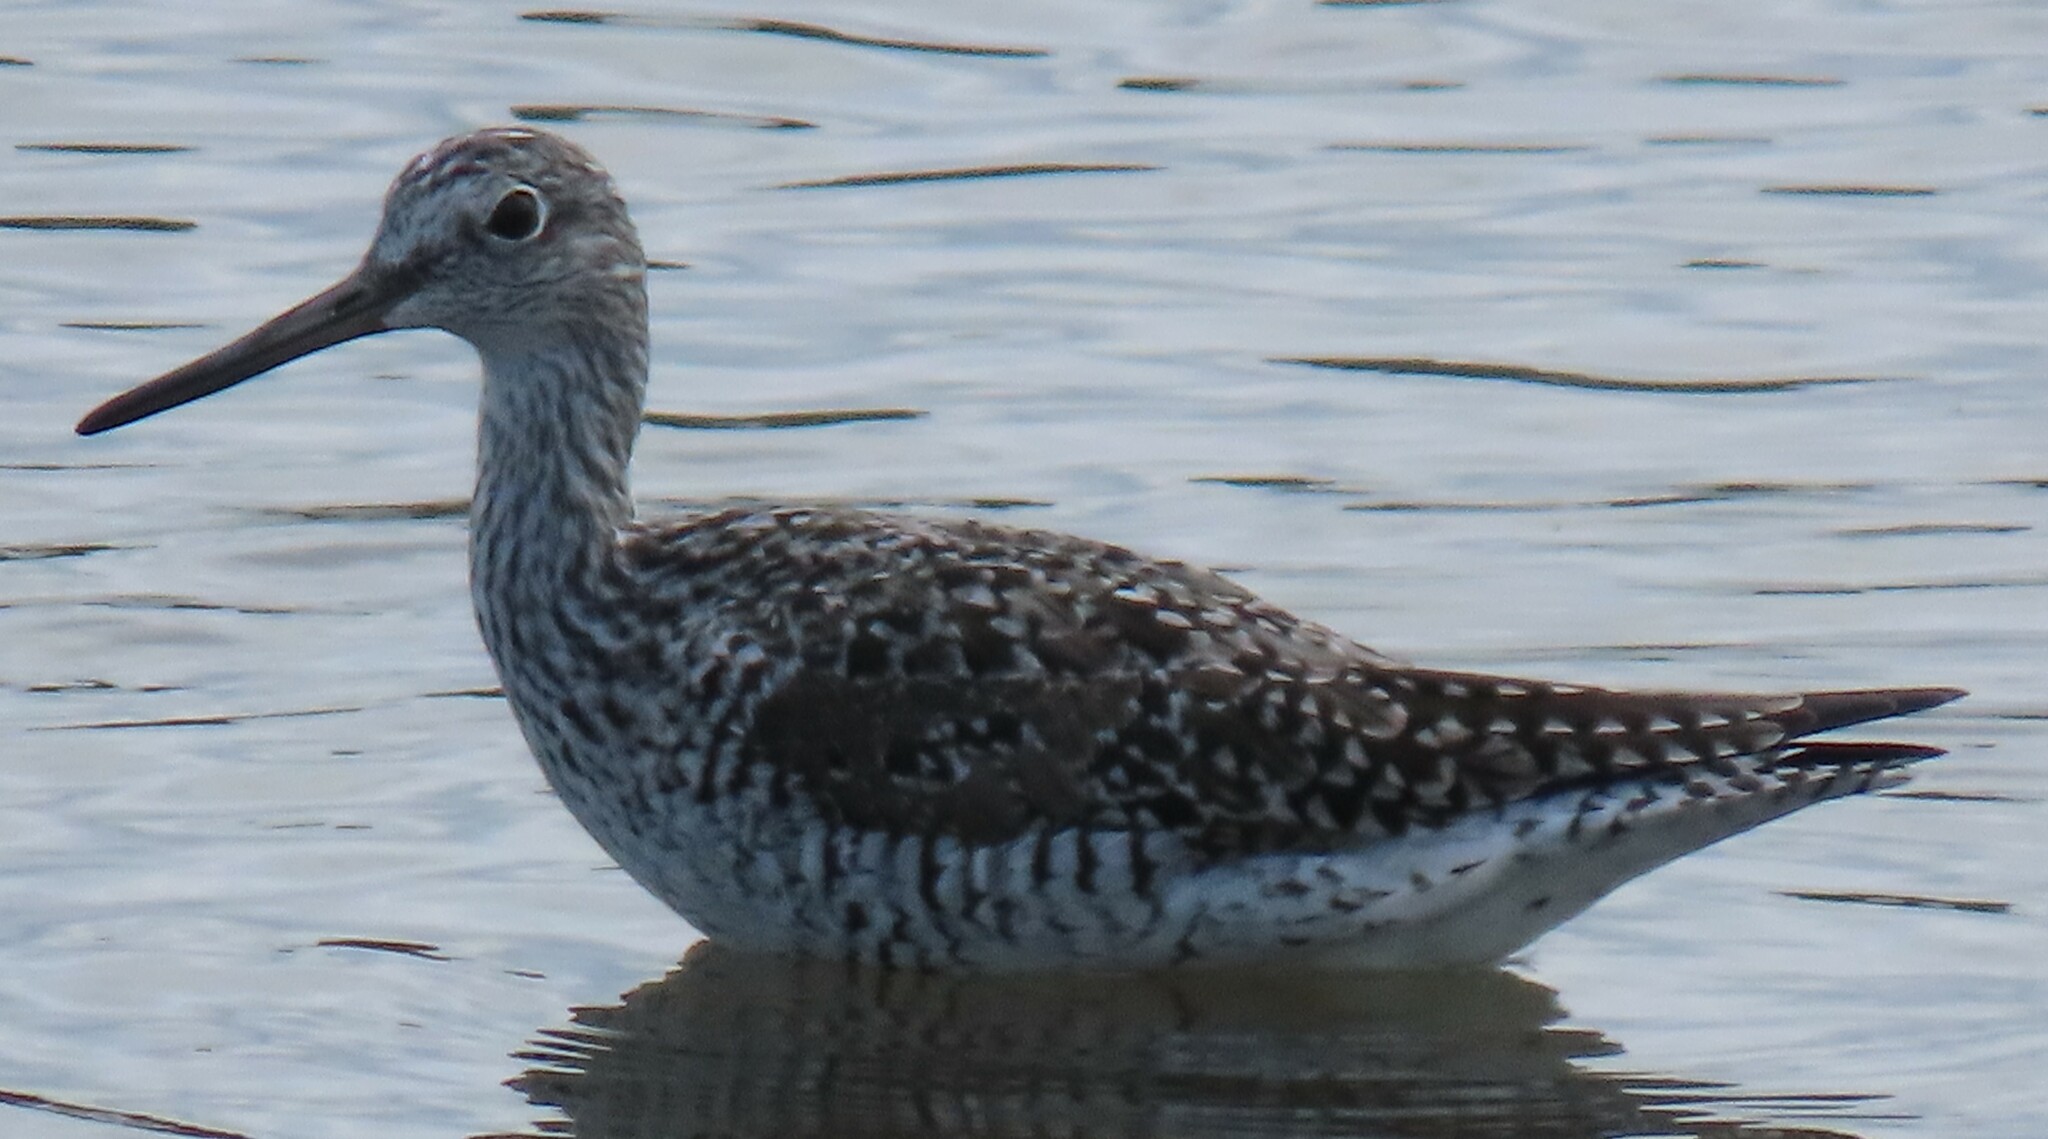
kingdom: Animalia
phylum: Chordata
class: Aves
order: Charadriiformes
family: Scolopacidae
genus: Tringa
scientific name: Tringa melanoleuca
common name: Greater yellowlegs
